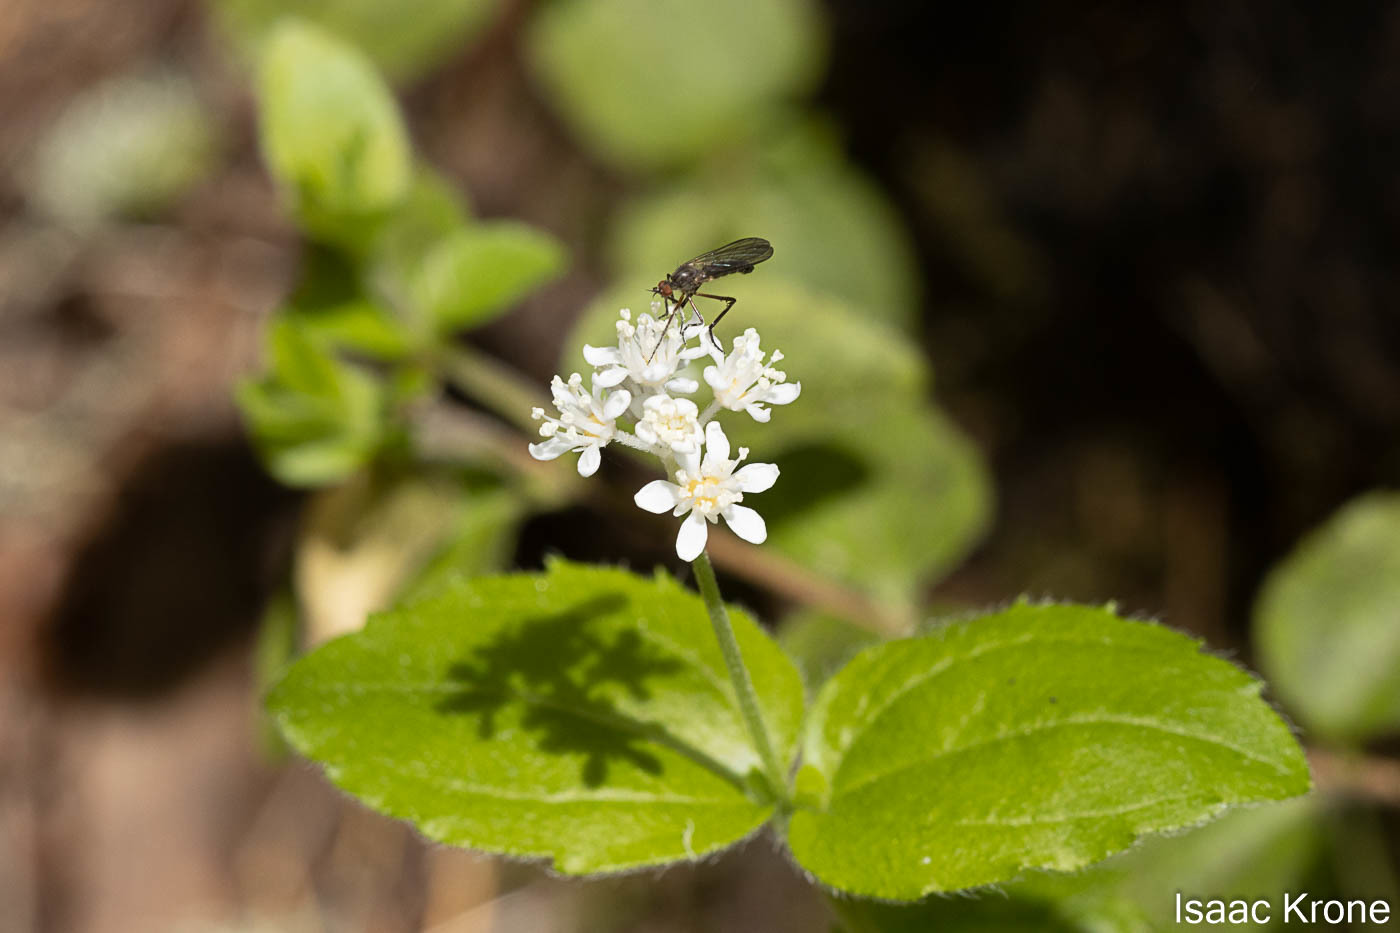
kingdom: Plantae
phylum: Tracheophyta
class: Magnoliopsida
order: Cornales
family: Hydrangeaceae
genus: Whipplea
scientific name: Whipplea modesta
